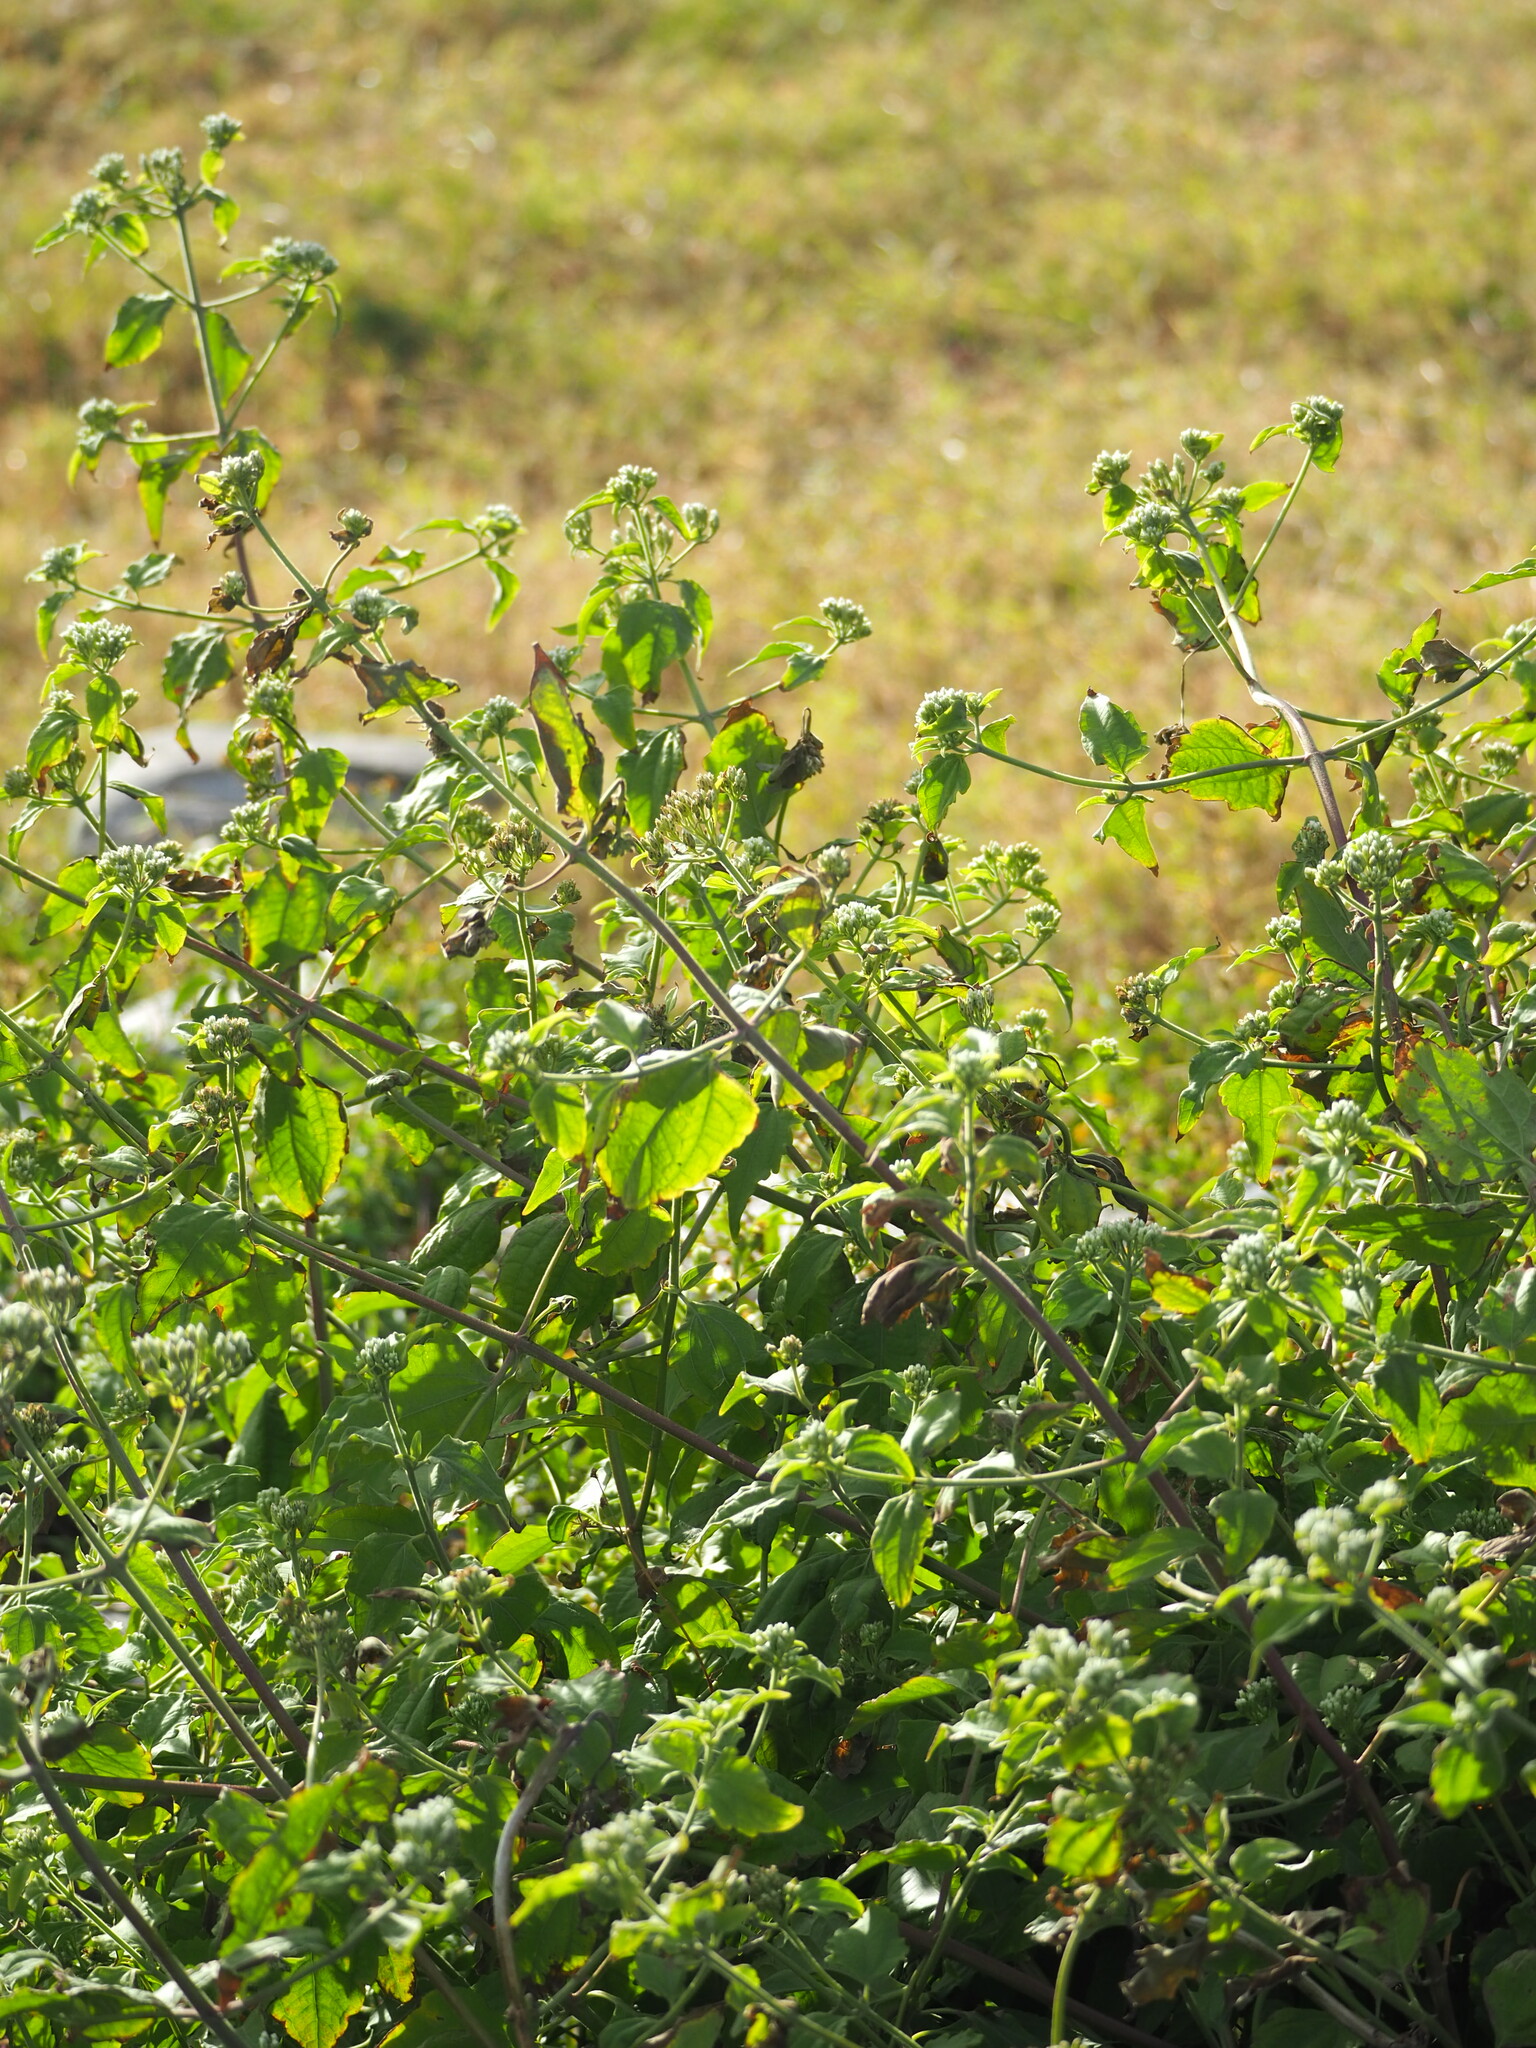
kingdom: Plantae
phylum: Tracheophyta
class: Magnoliopsida
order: Asterales
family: Asteraceae
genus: Chromolaena
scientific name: Chromolaena odorata
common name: Siamweed
